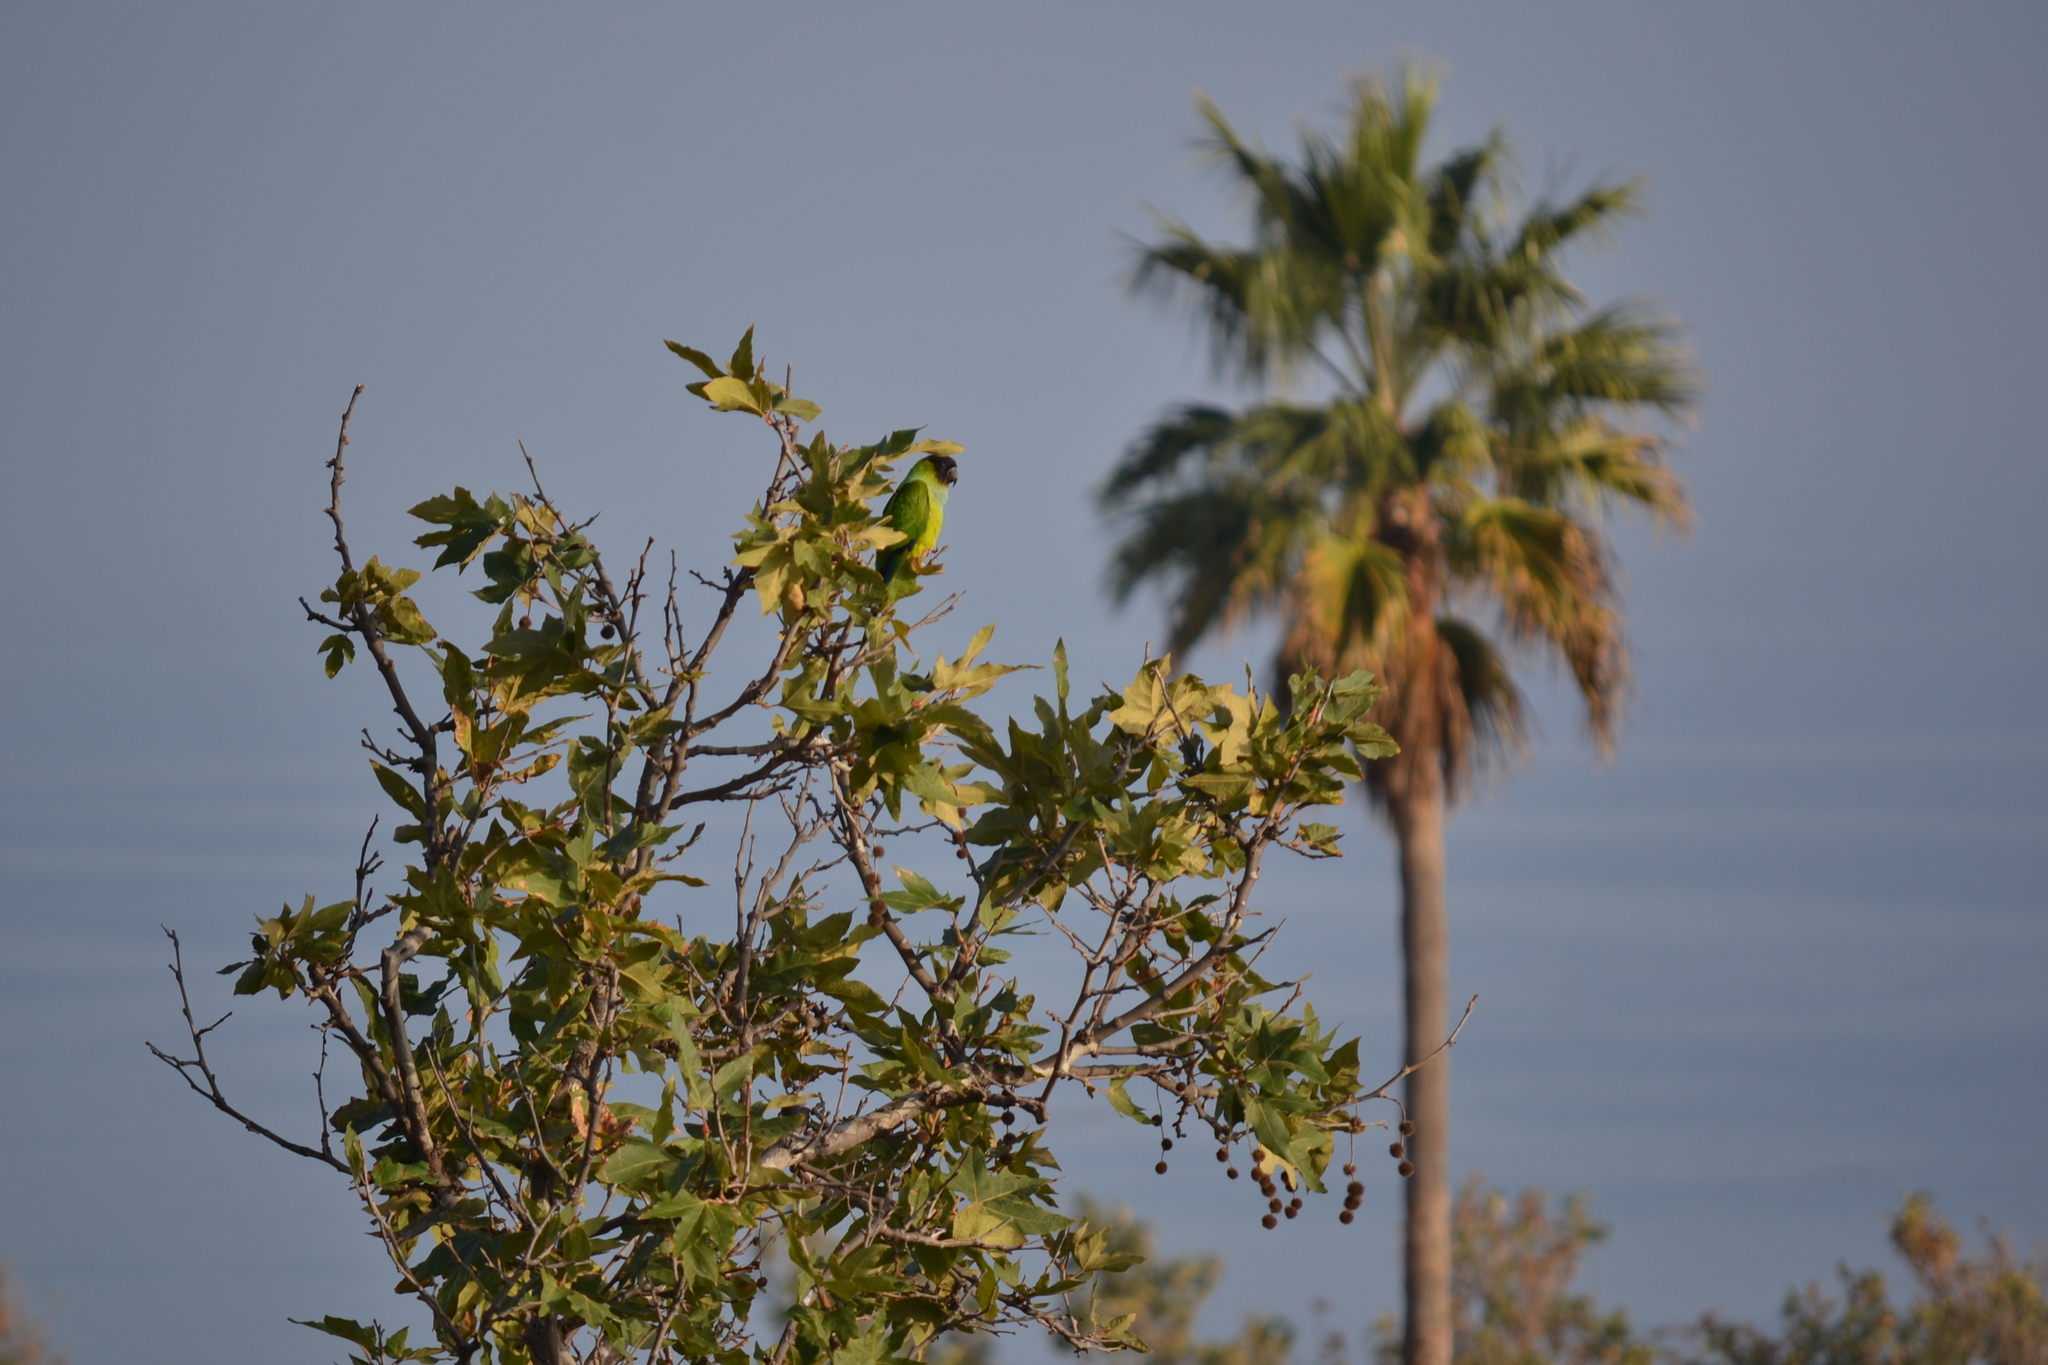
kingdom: Animalia
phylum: Chordata
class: Aves
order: Psittaciformes
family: Psittacidae
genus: Nandayus
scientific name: Nandayus nenday
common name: Nanday parakeet
